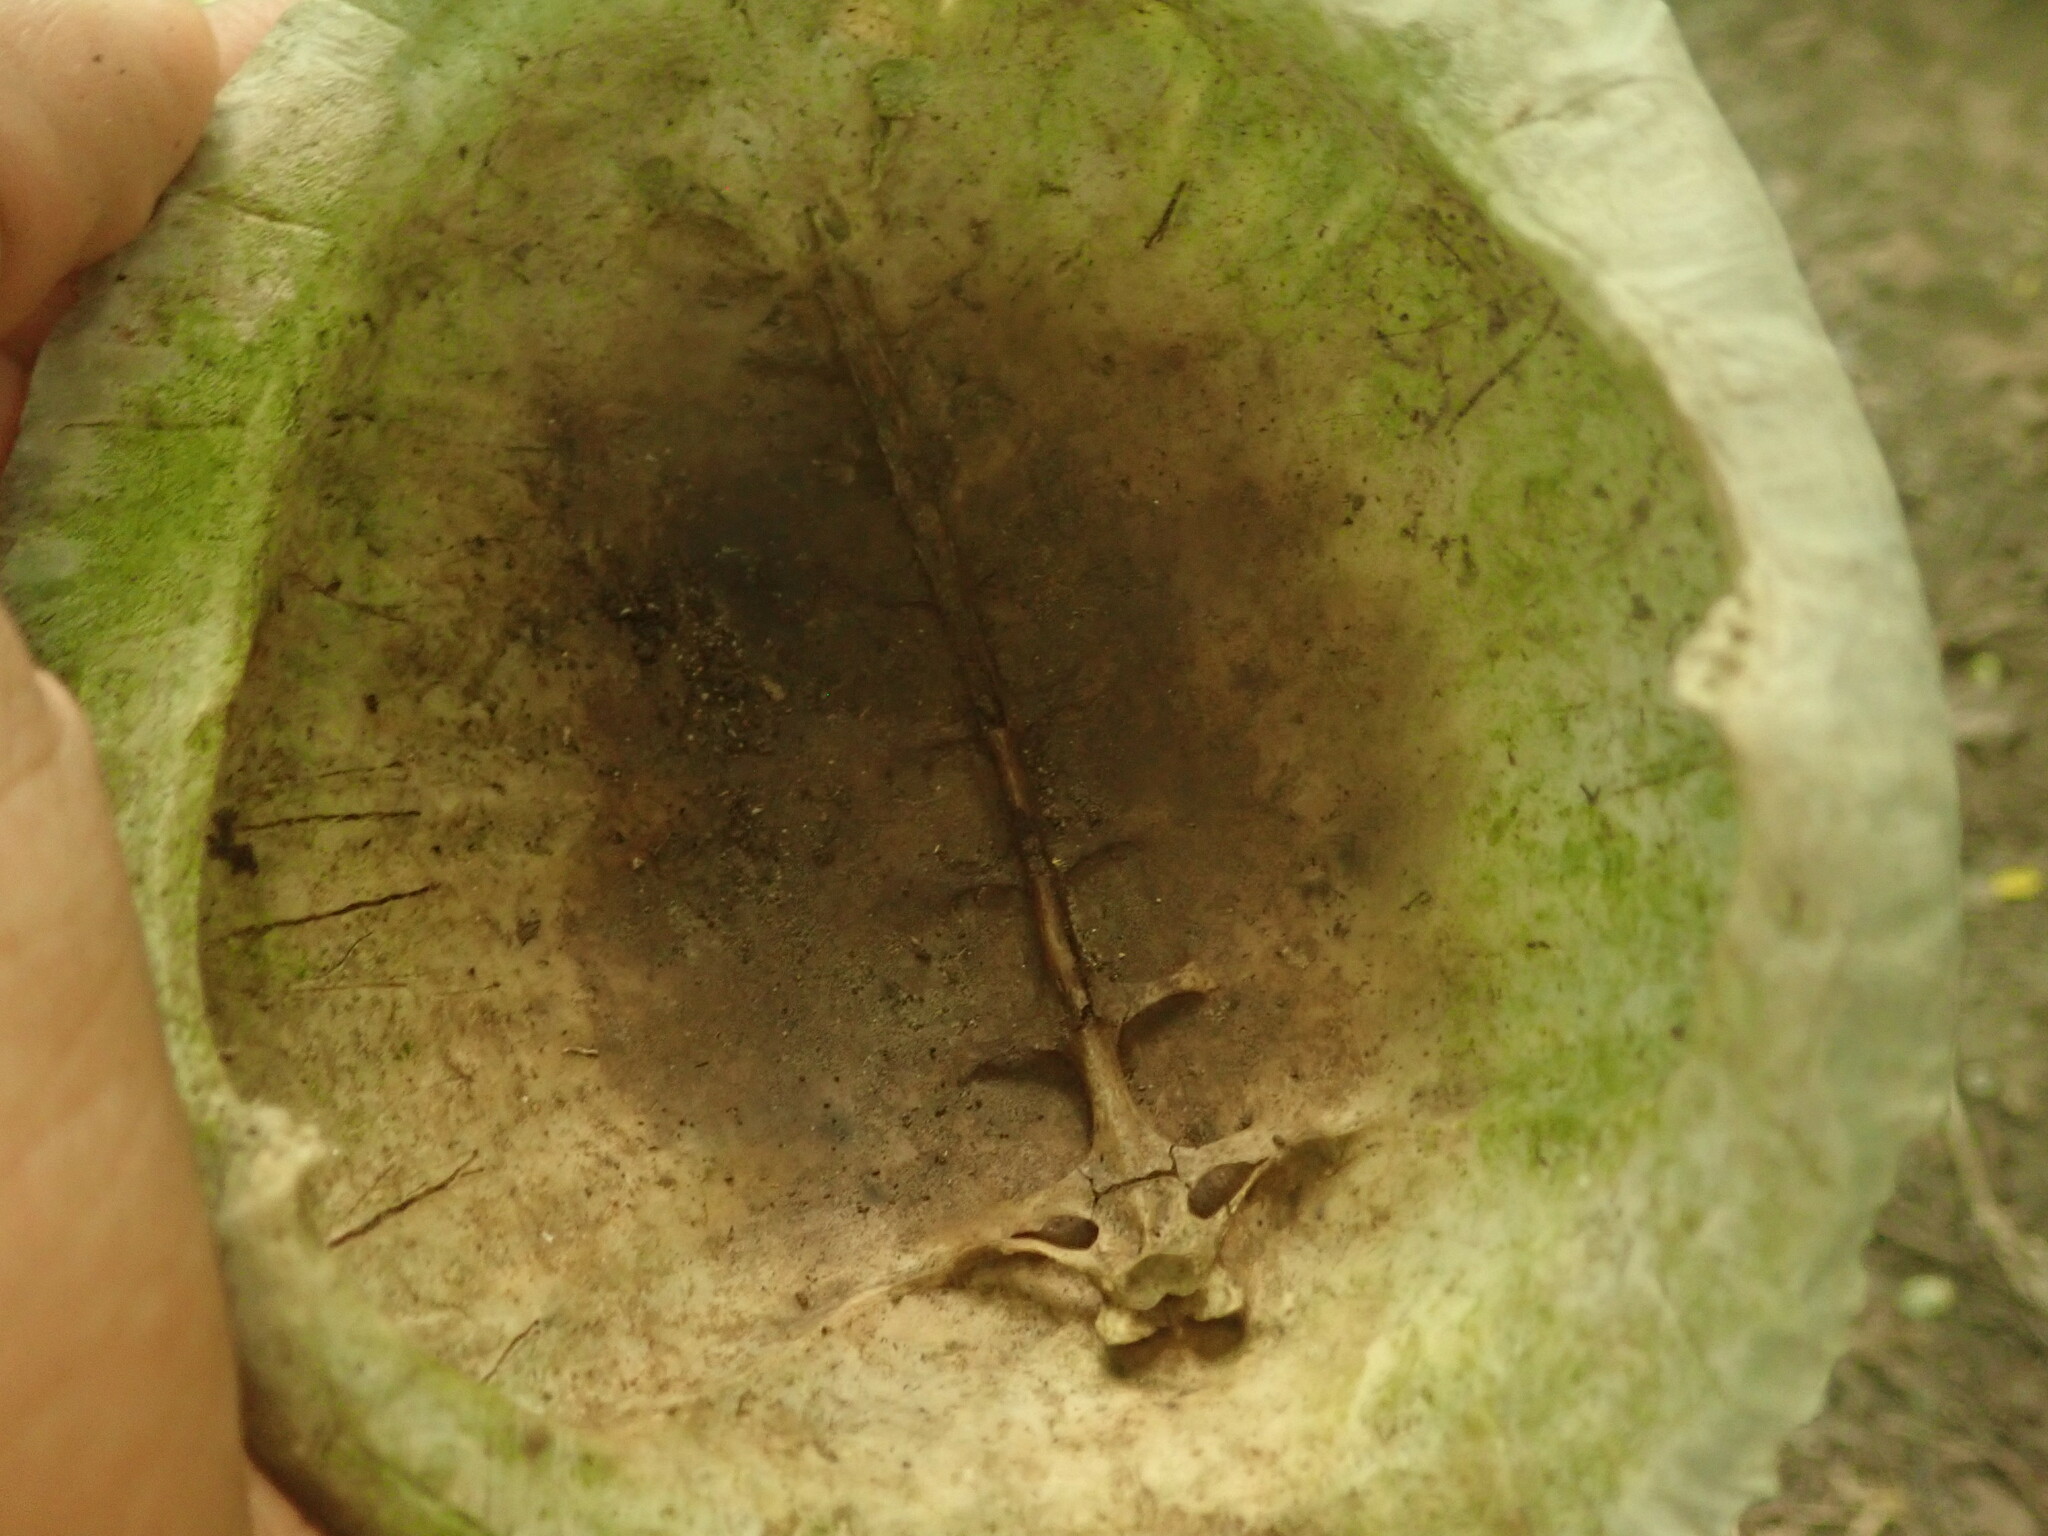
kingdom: Animalia
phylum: Chordata
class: Testudines
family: Emydidae
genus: Terrapene
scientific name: Terrapene carolina
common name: Common box turtle
